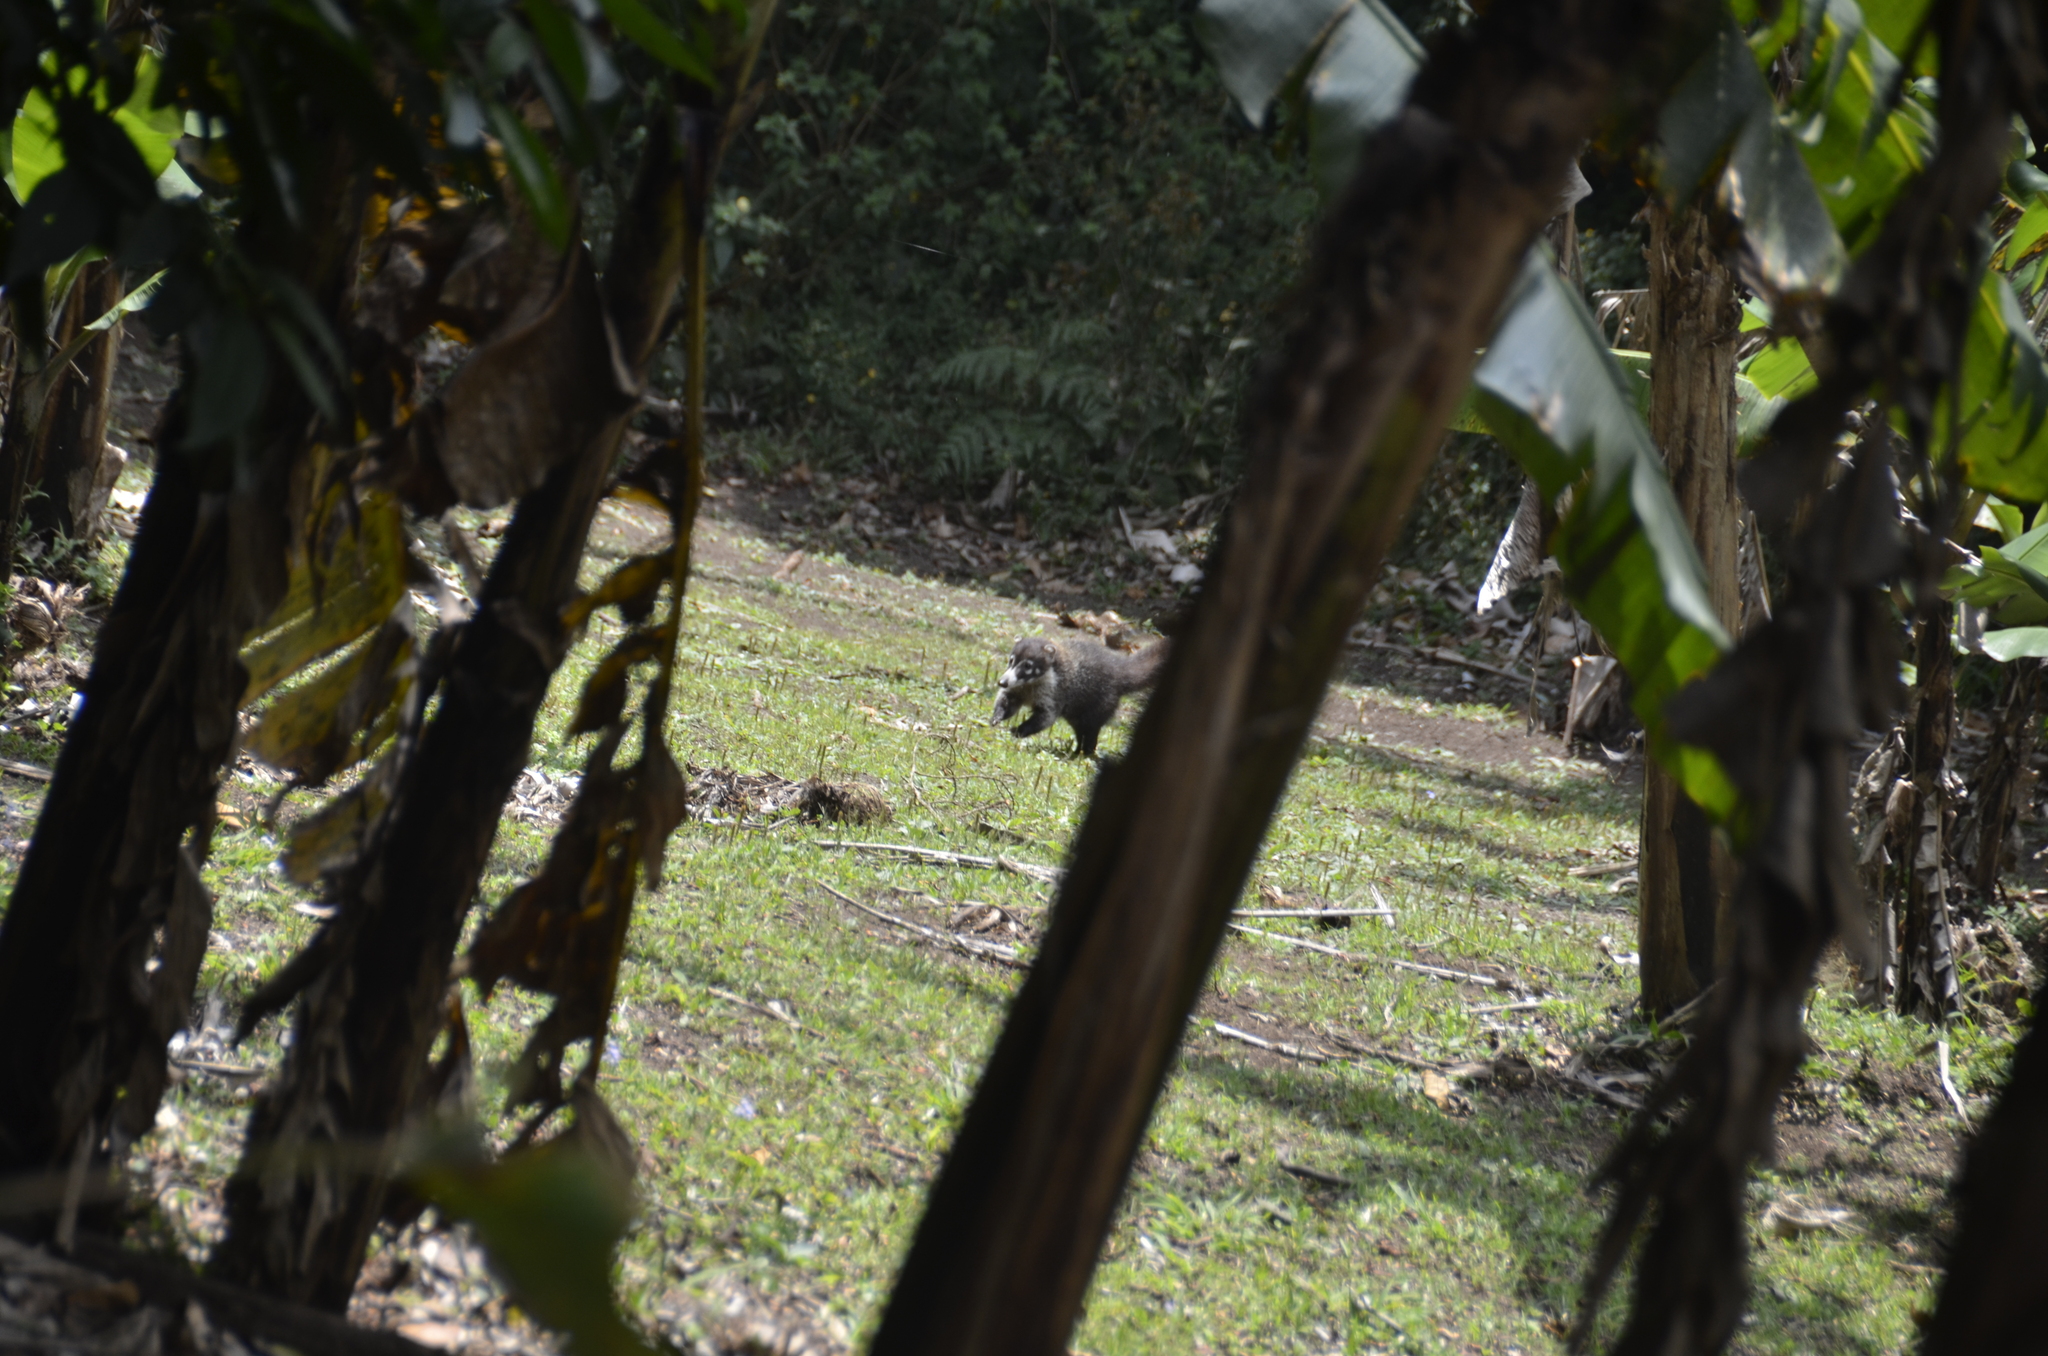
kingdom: Animalia
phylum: Chordata
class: Mammalia
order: Carnivora
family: Procyonidae
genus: Nasua
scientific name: Nasua narica
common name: White-nosed coati
